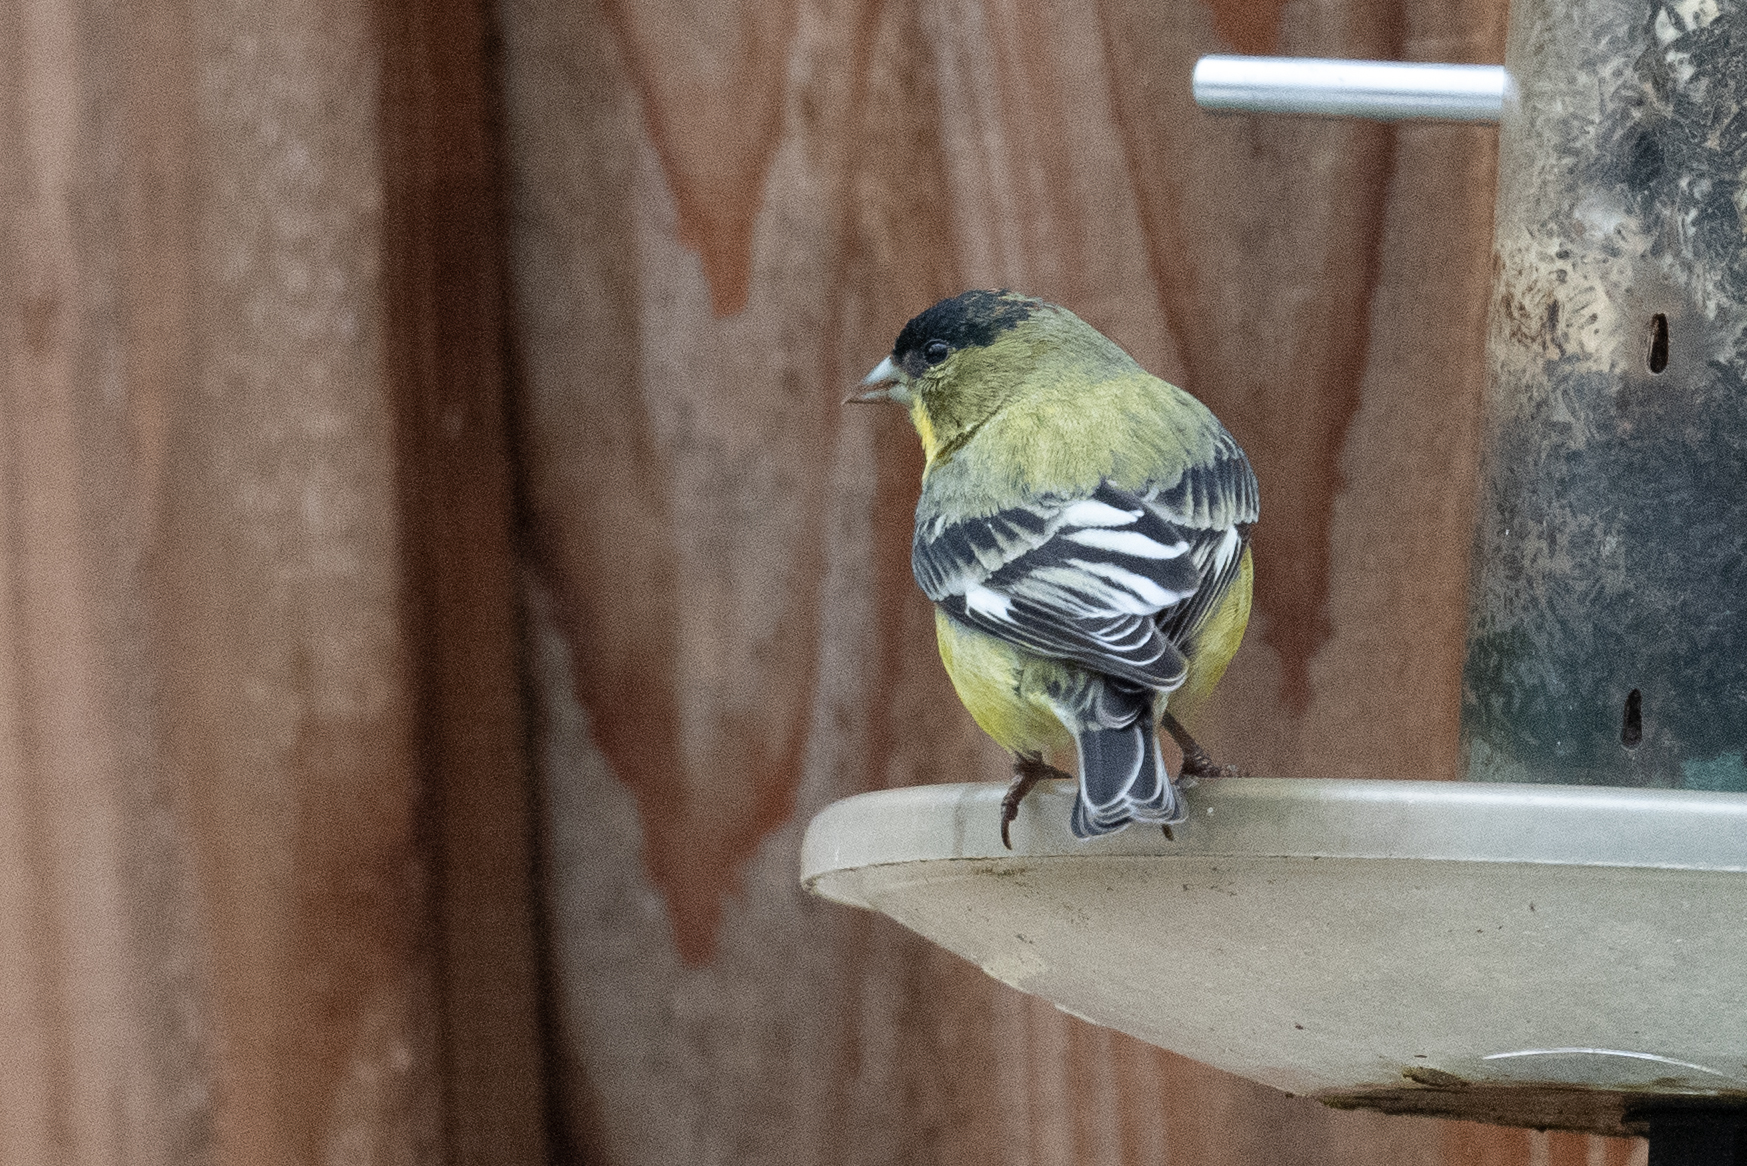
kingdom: Animalia
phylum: Chordata
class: Aves
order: Passeriformes
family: Fringillidae
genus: Spinus
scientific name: Spinus psaltria
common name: Lesser goldfinch
